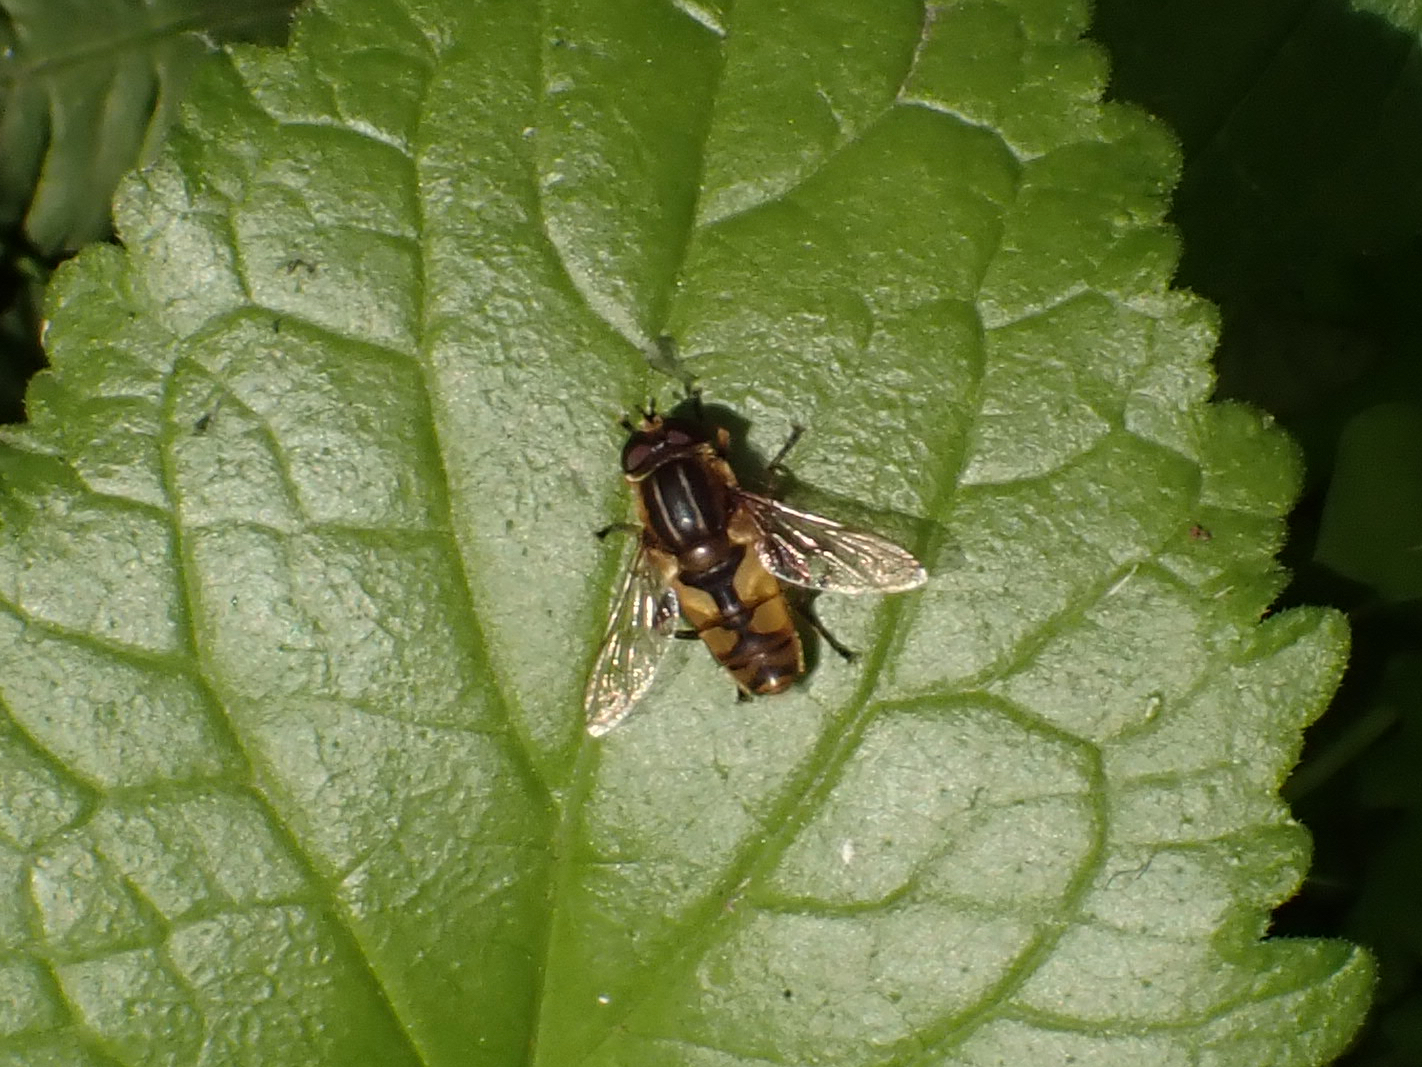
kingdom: Animalia
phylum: Arthropoda
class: Insecta
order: Diptera
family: Syrphidae
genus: Helophilus
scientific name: Helophilus hybridus
